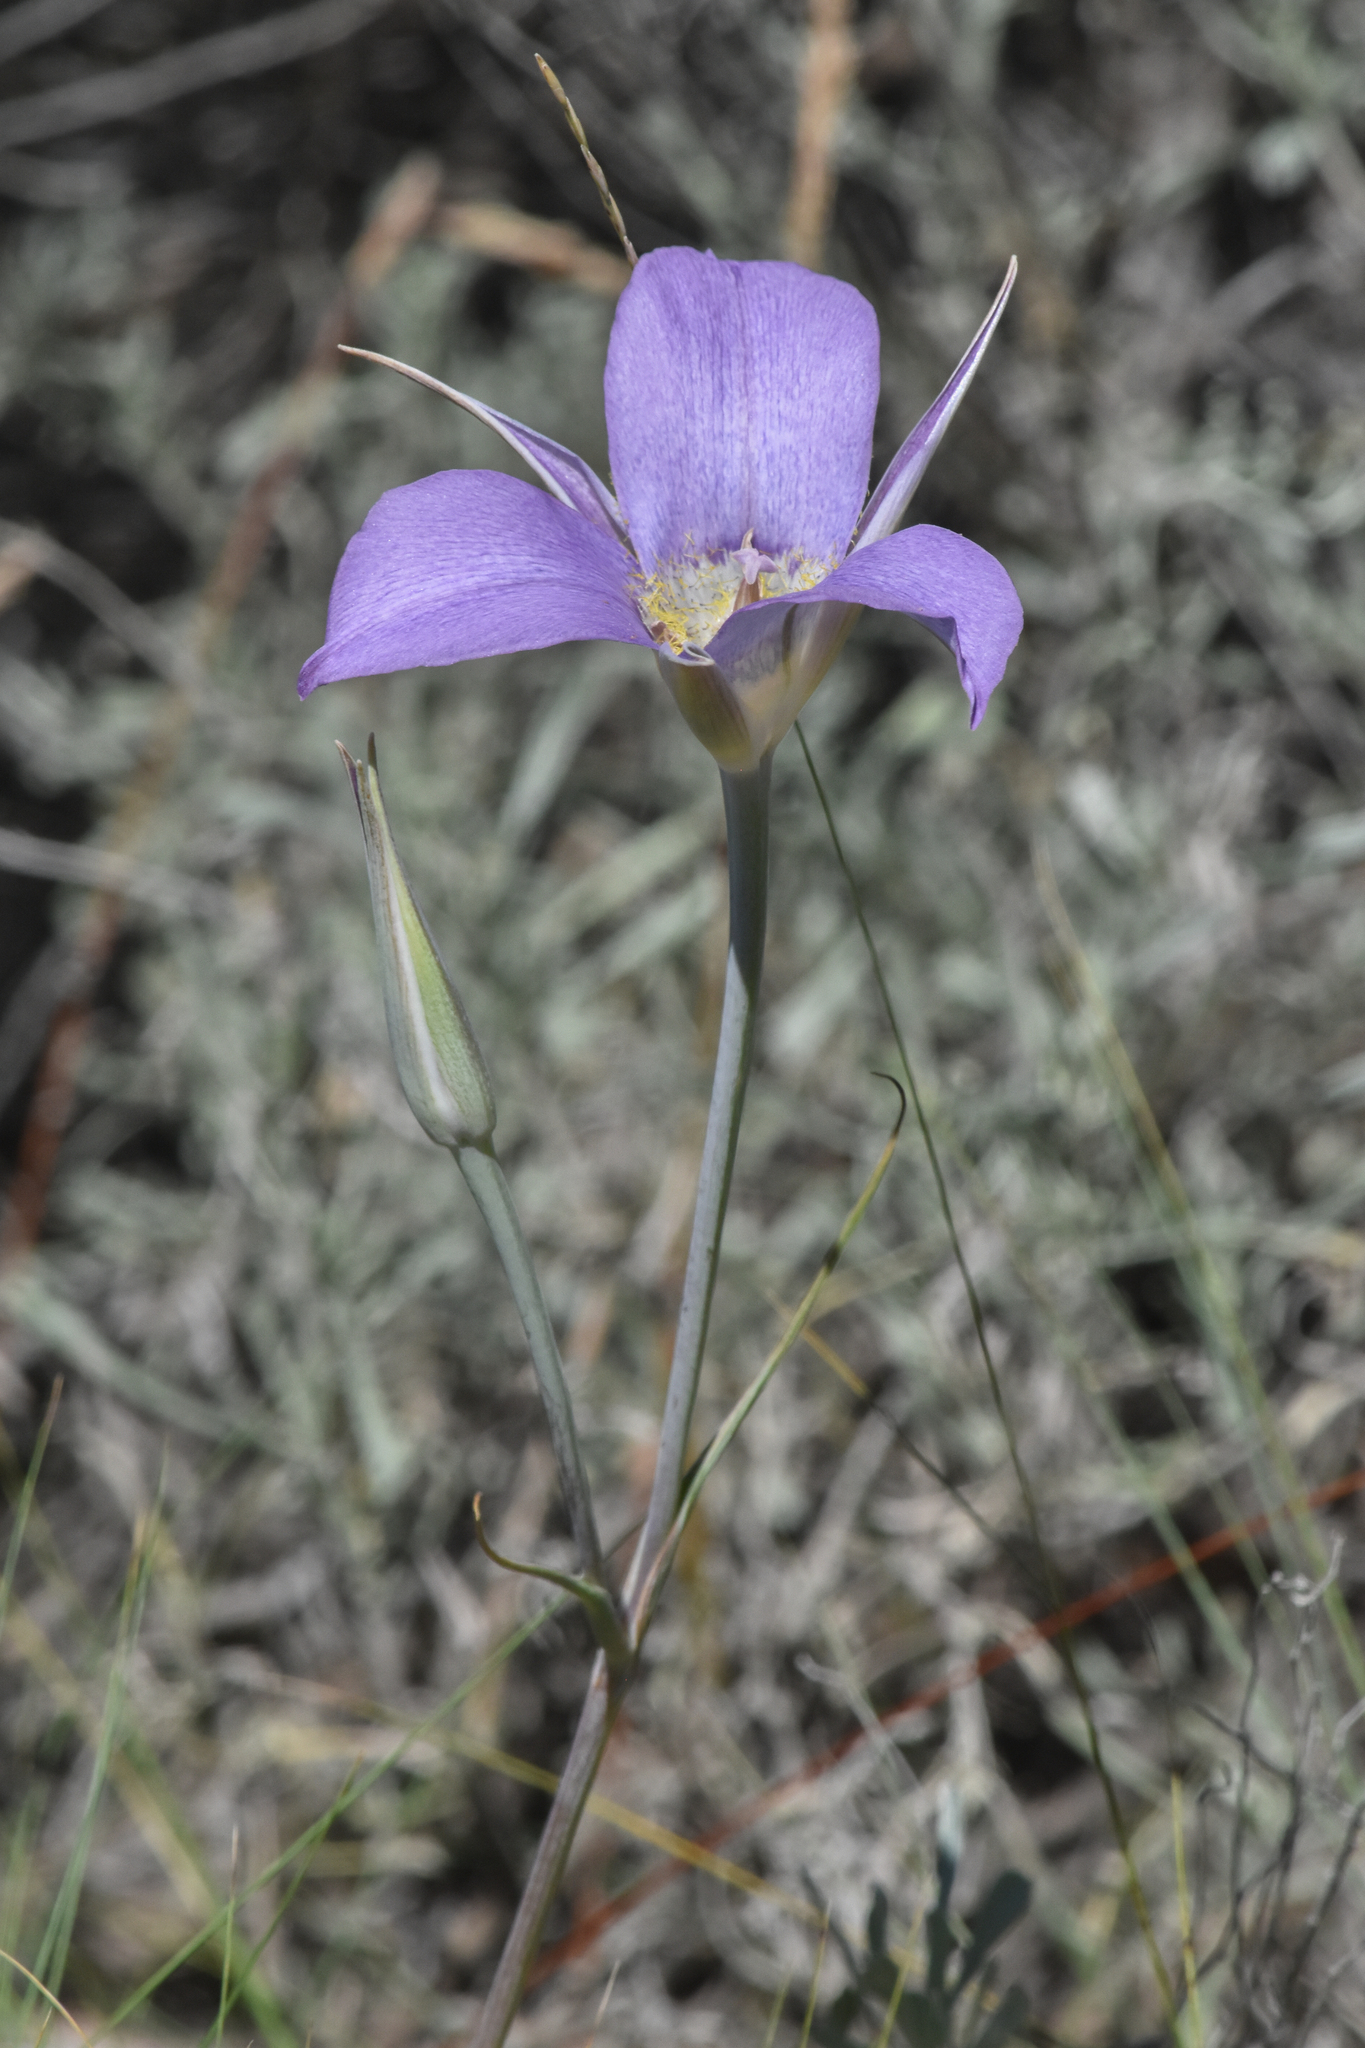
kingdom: Plantae
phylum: Tracheophyta
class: Liliopsida
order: Liliales
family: Liliaceae
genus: Calochortus
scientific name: Calochortus macrocarpus
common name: Green-band mariposa lily
